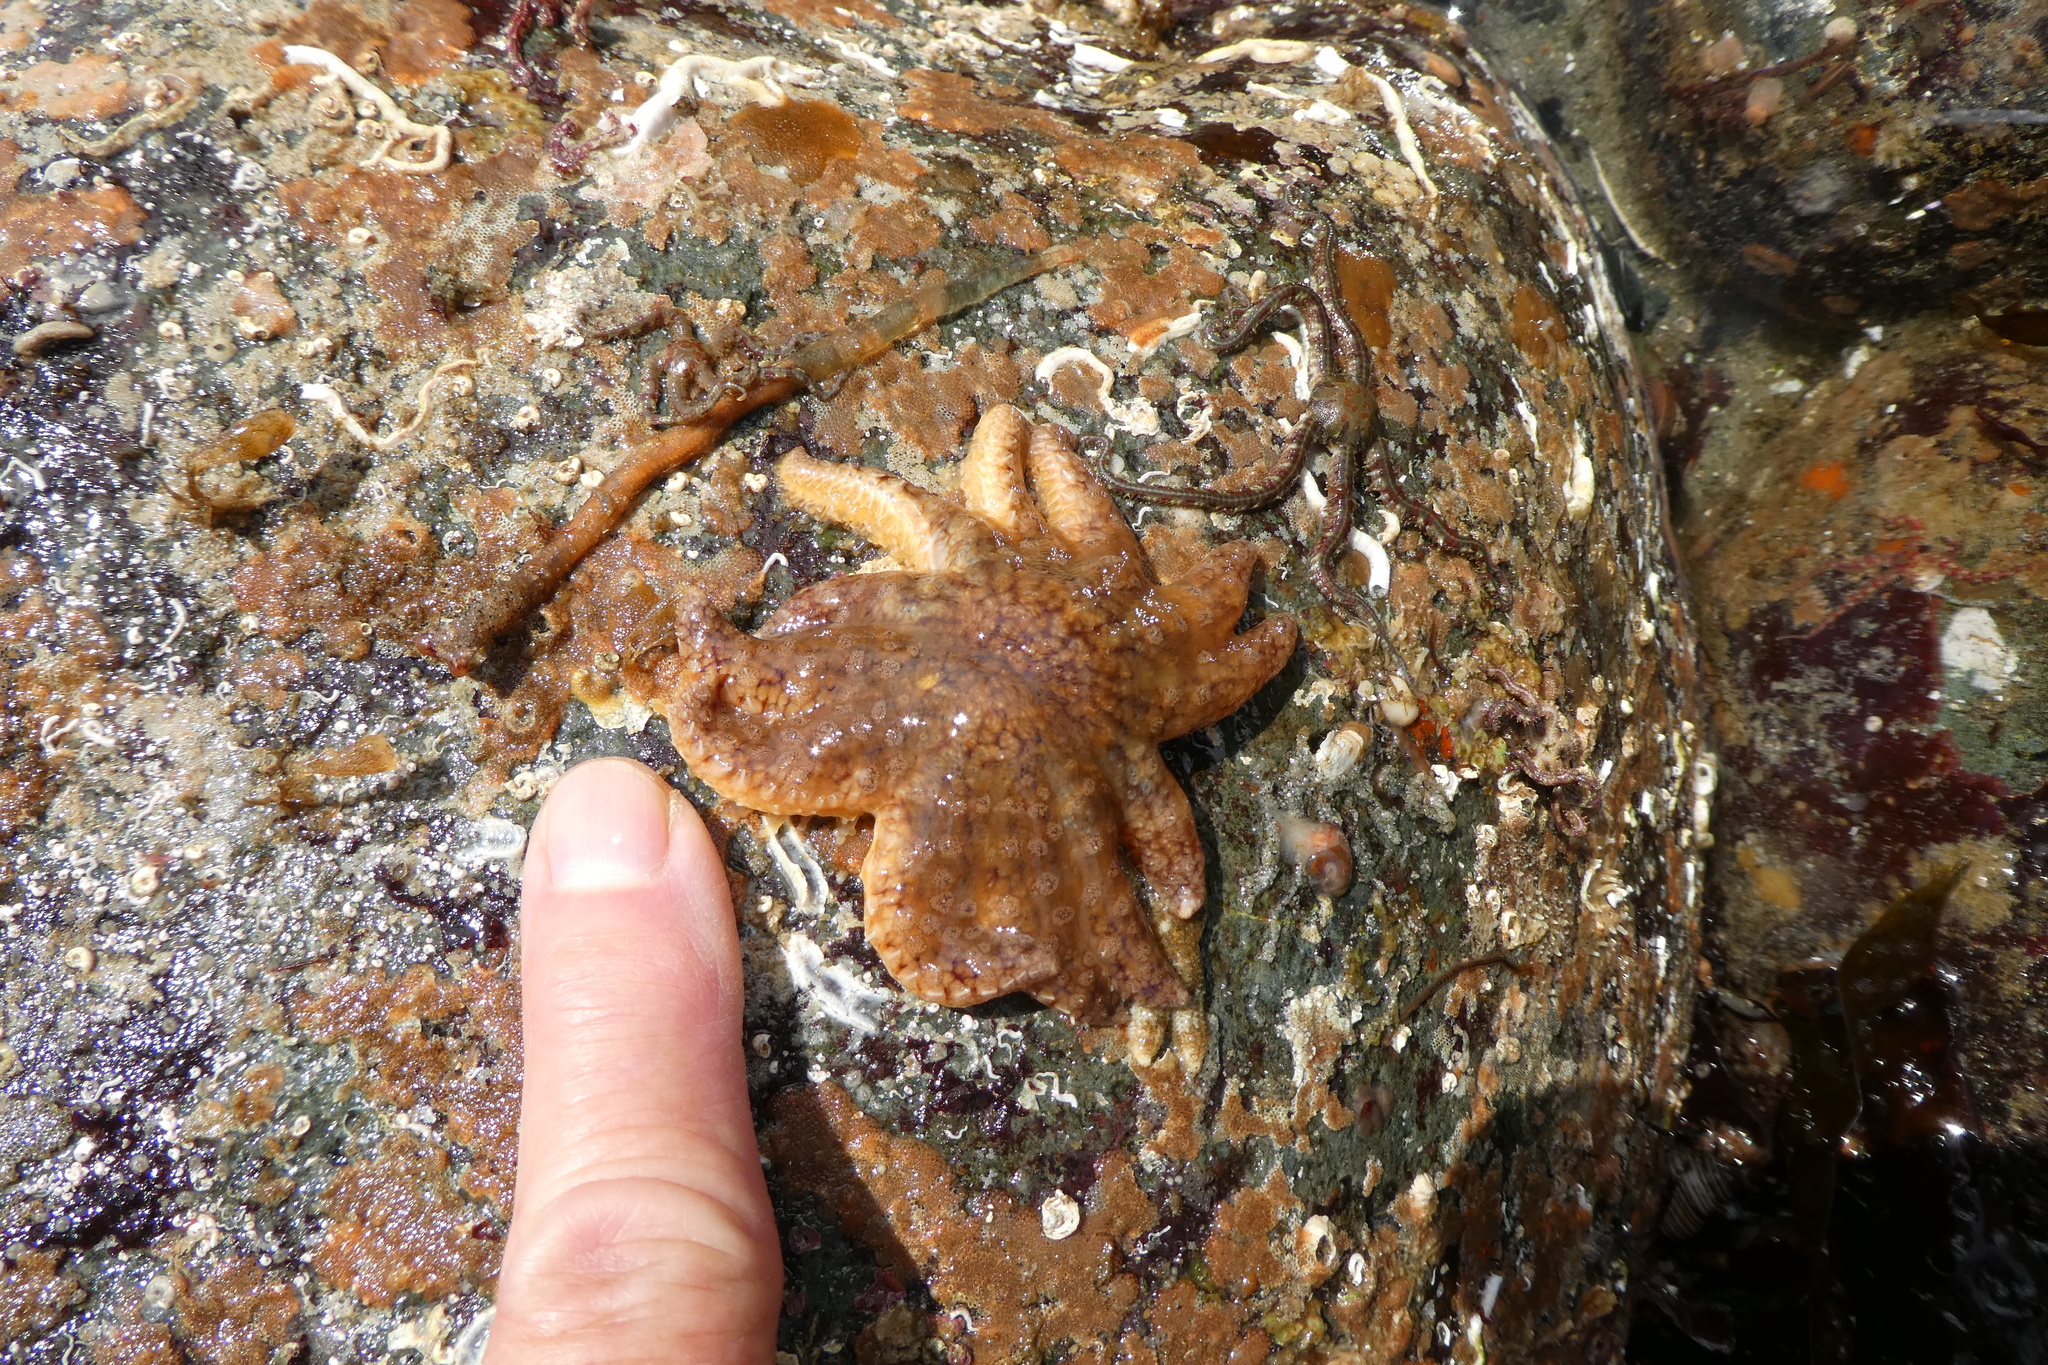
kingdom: Animalia
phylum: Echinodermata
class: Asteroidea
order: Forcipulatida
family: Asteriidae
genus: Pycnopodia
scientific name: Pycnopodia helianthoides
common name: Rag mop
